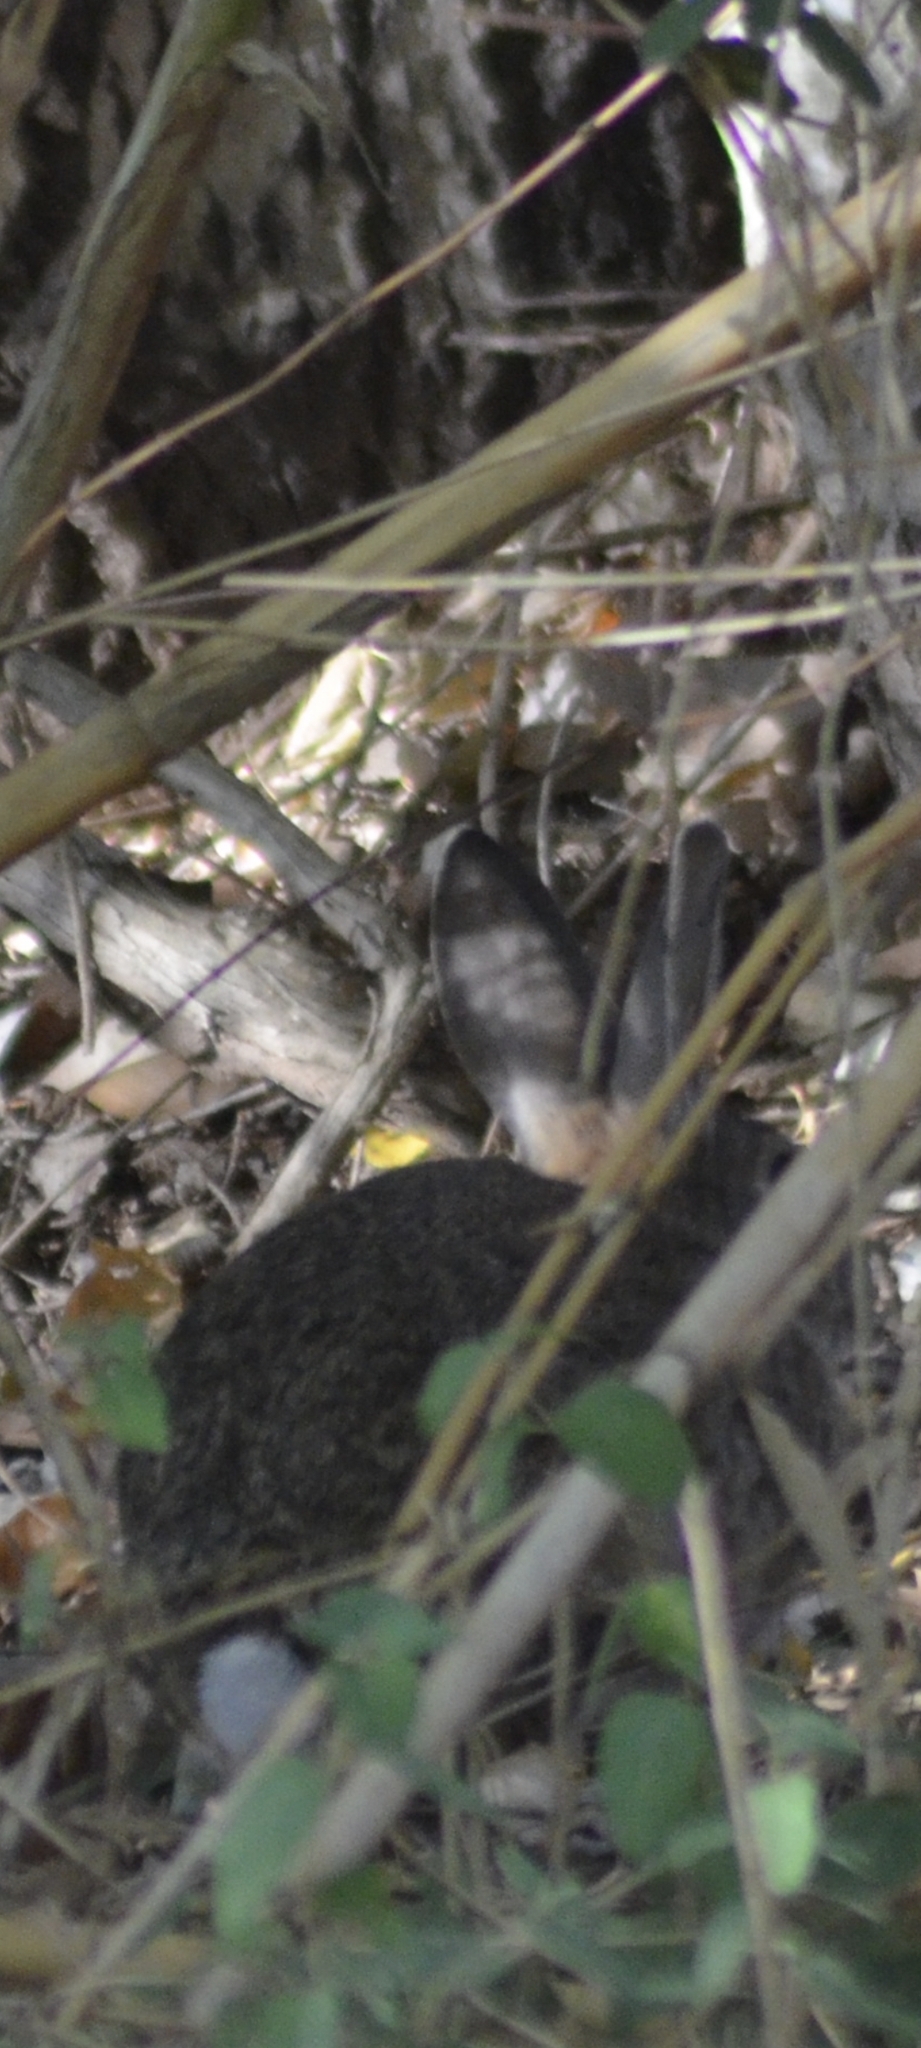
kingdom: Animalia
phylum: Chordata
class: Mammalia
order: Lagomorpha
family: Leporidae
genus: Oryctolagus
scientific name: Oryctolagus cuniculus
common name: European rabbit
